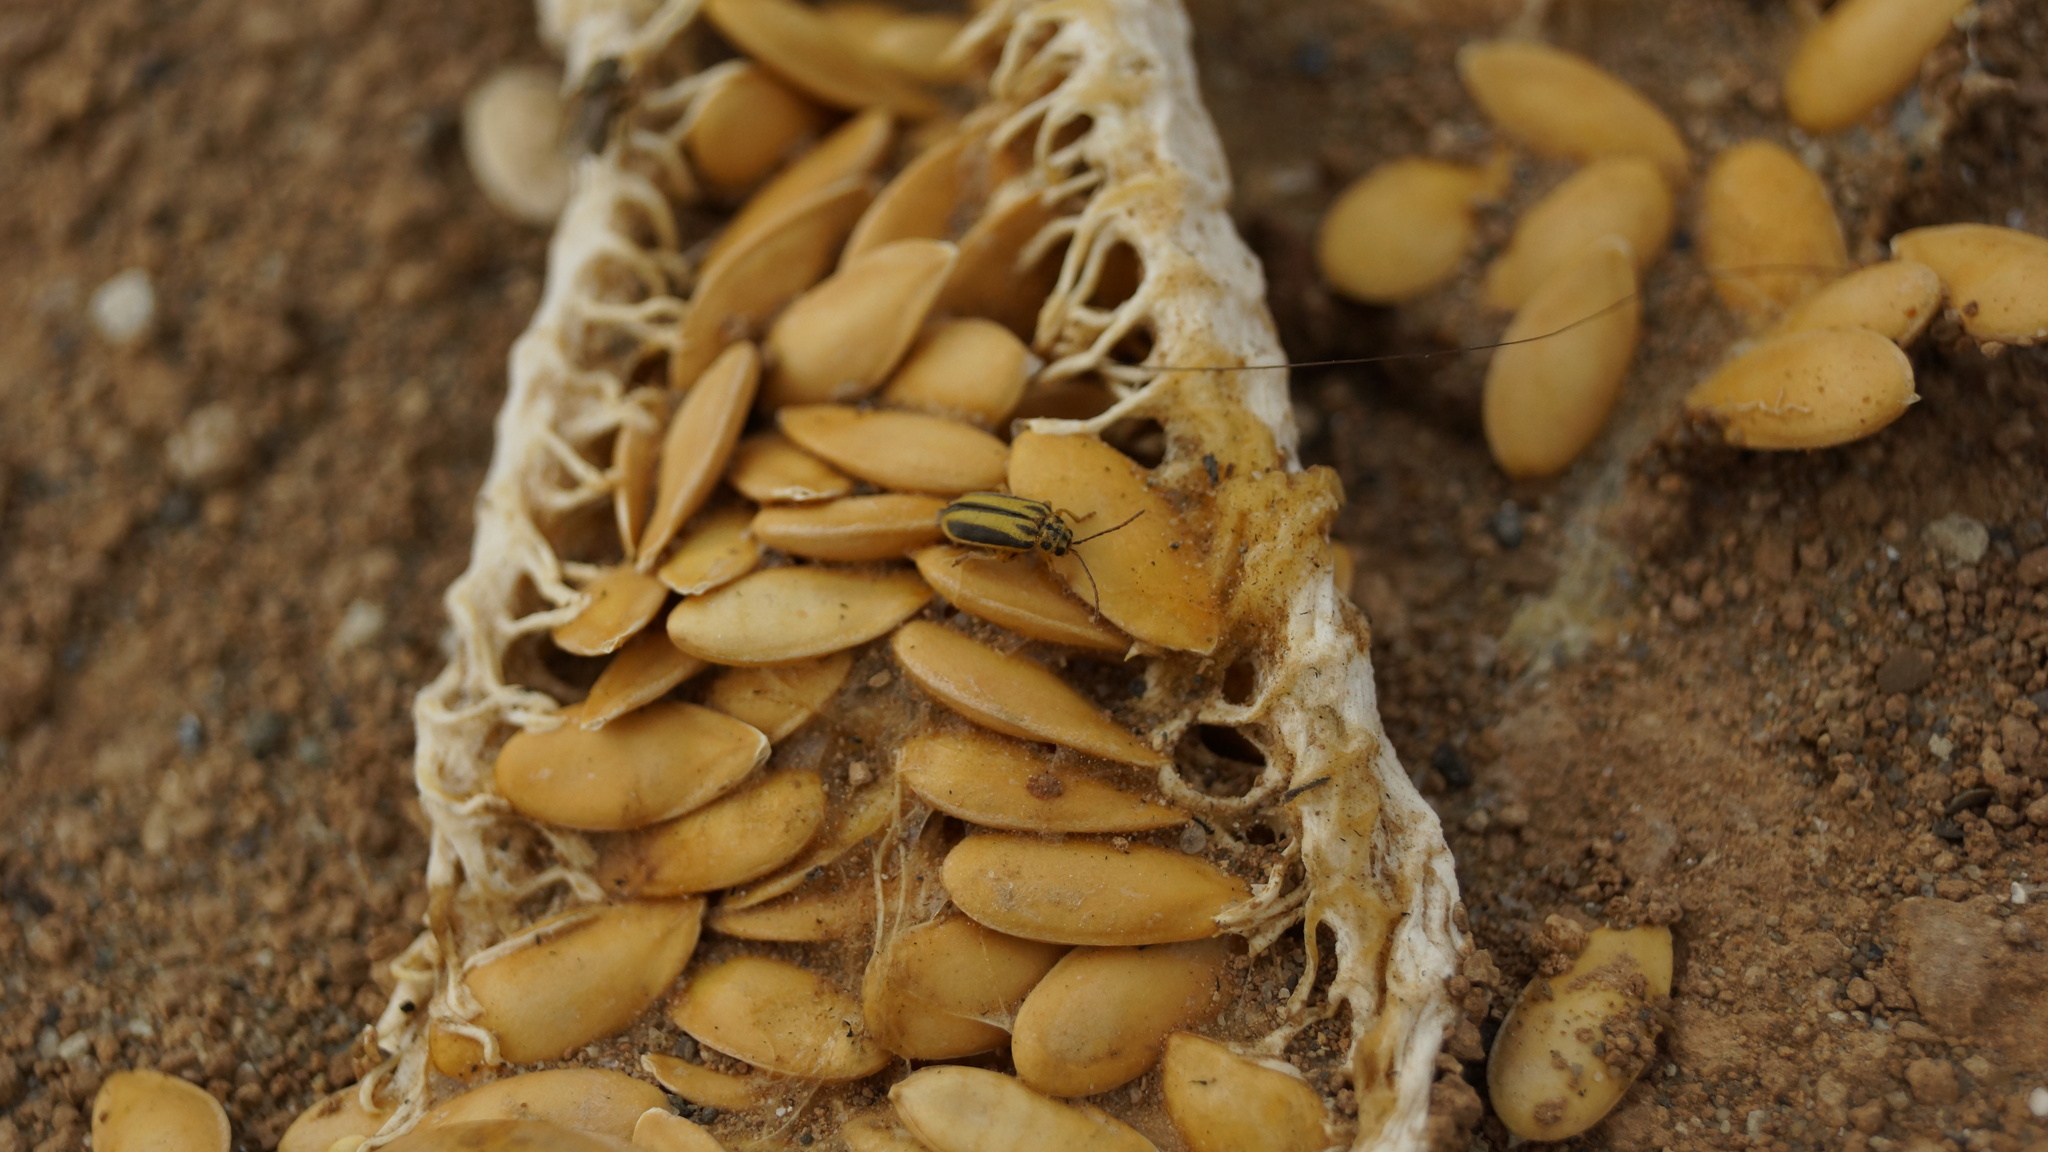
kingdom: Animalia
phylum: Arthropoda
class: Insecta
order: Coleoptera
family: Chrysomelidae
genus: Xanthogaleruca
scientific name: Xanthogaleruca luteola
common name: Elm leaf beetle
